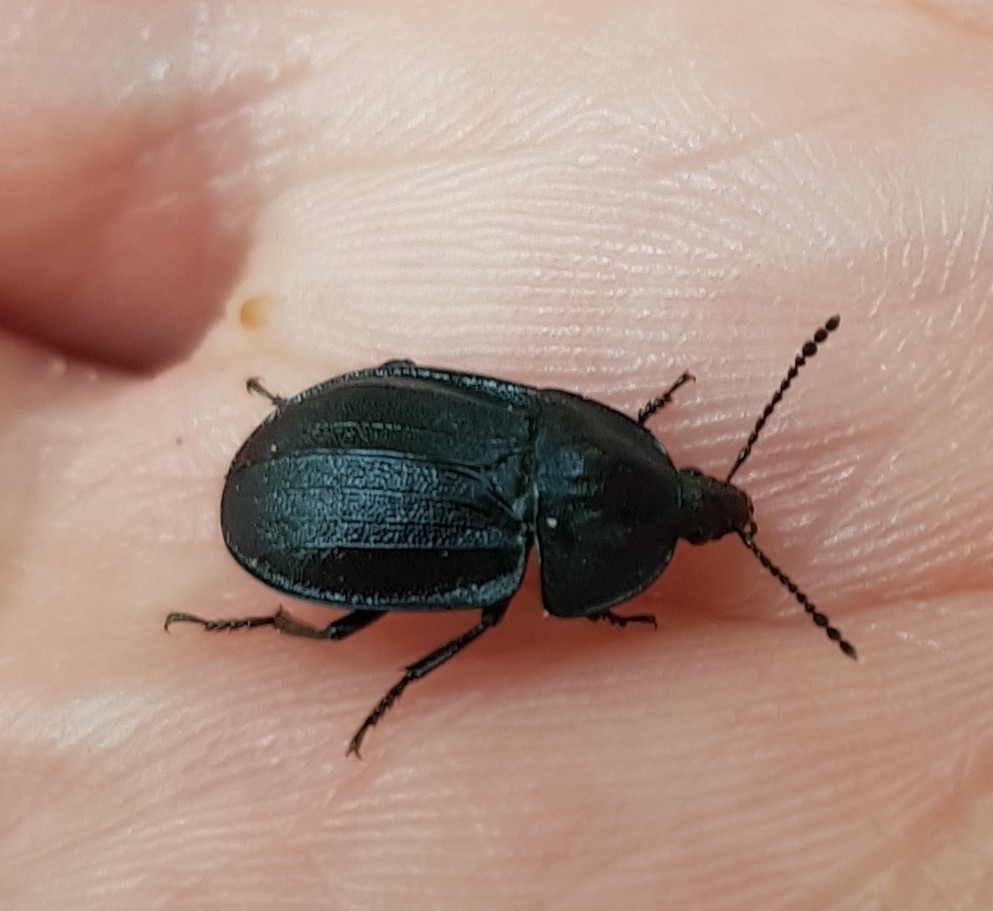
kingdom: Animalia
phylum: Arthropoda
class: Insecta
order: Coleoptera
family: Staphylinidae
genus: Silpha
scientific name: Silpha atrata
